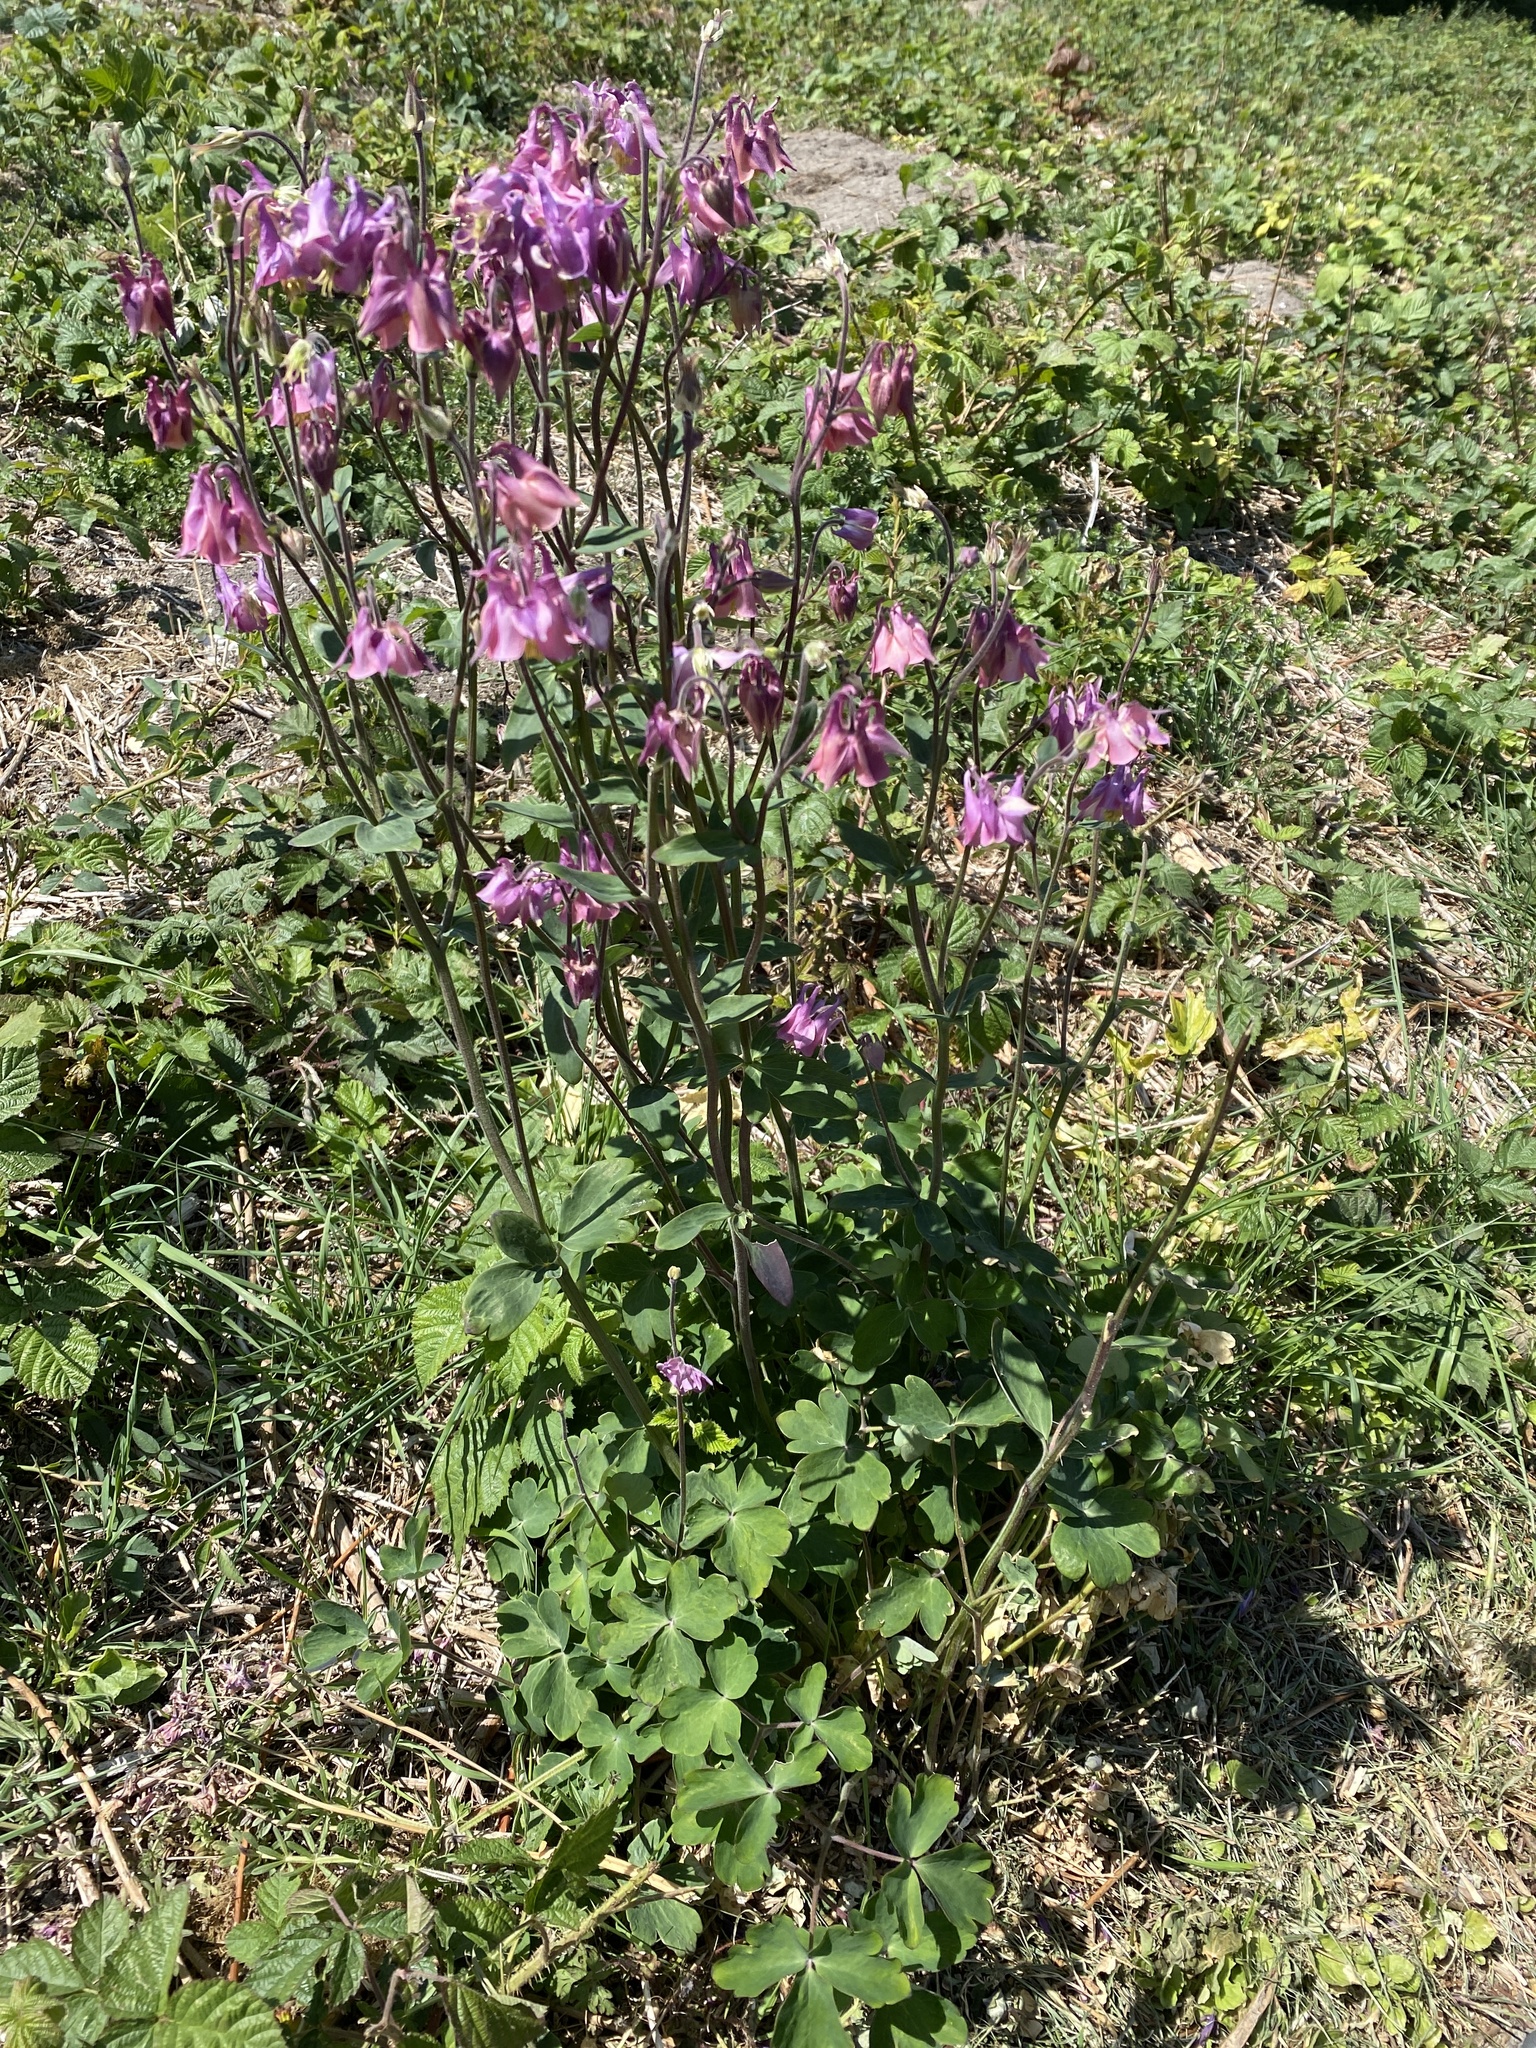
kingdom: Plantae
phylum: Tracheophyta
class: Magnoliopsida
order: Ranunculales
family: Ranunculaceae
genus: Aquilegia
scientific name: Aquilegia vulgaris
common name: Columbine
